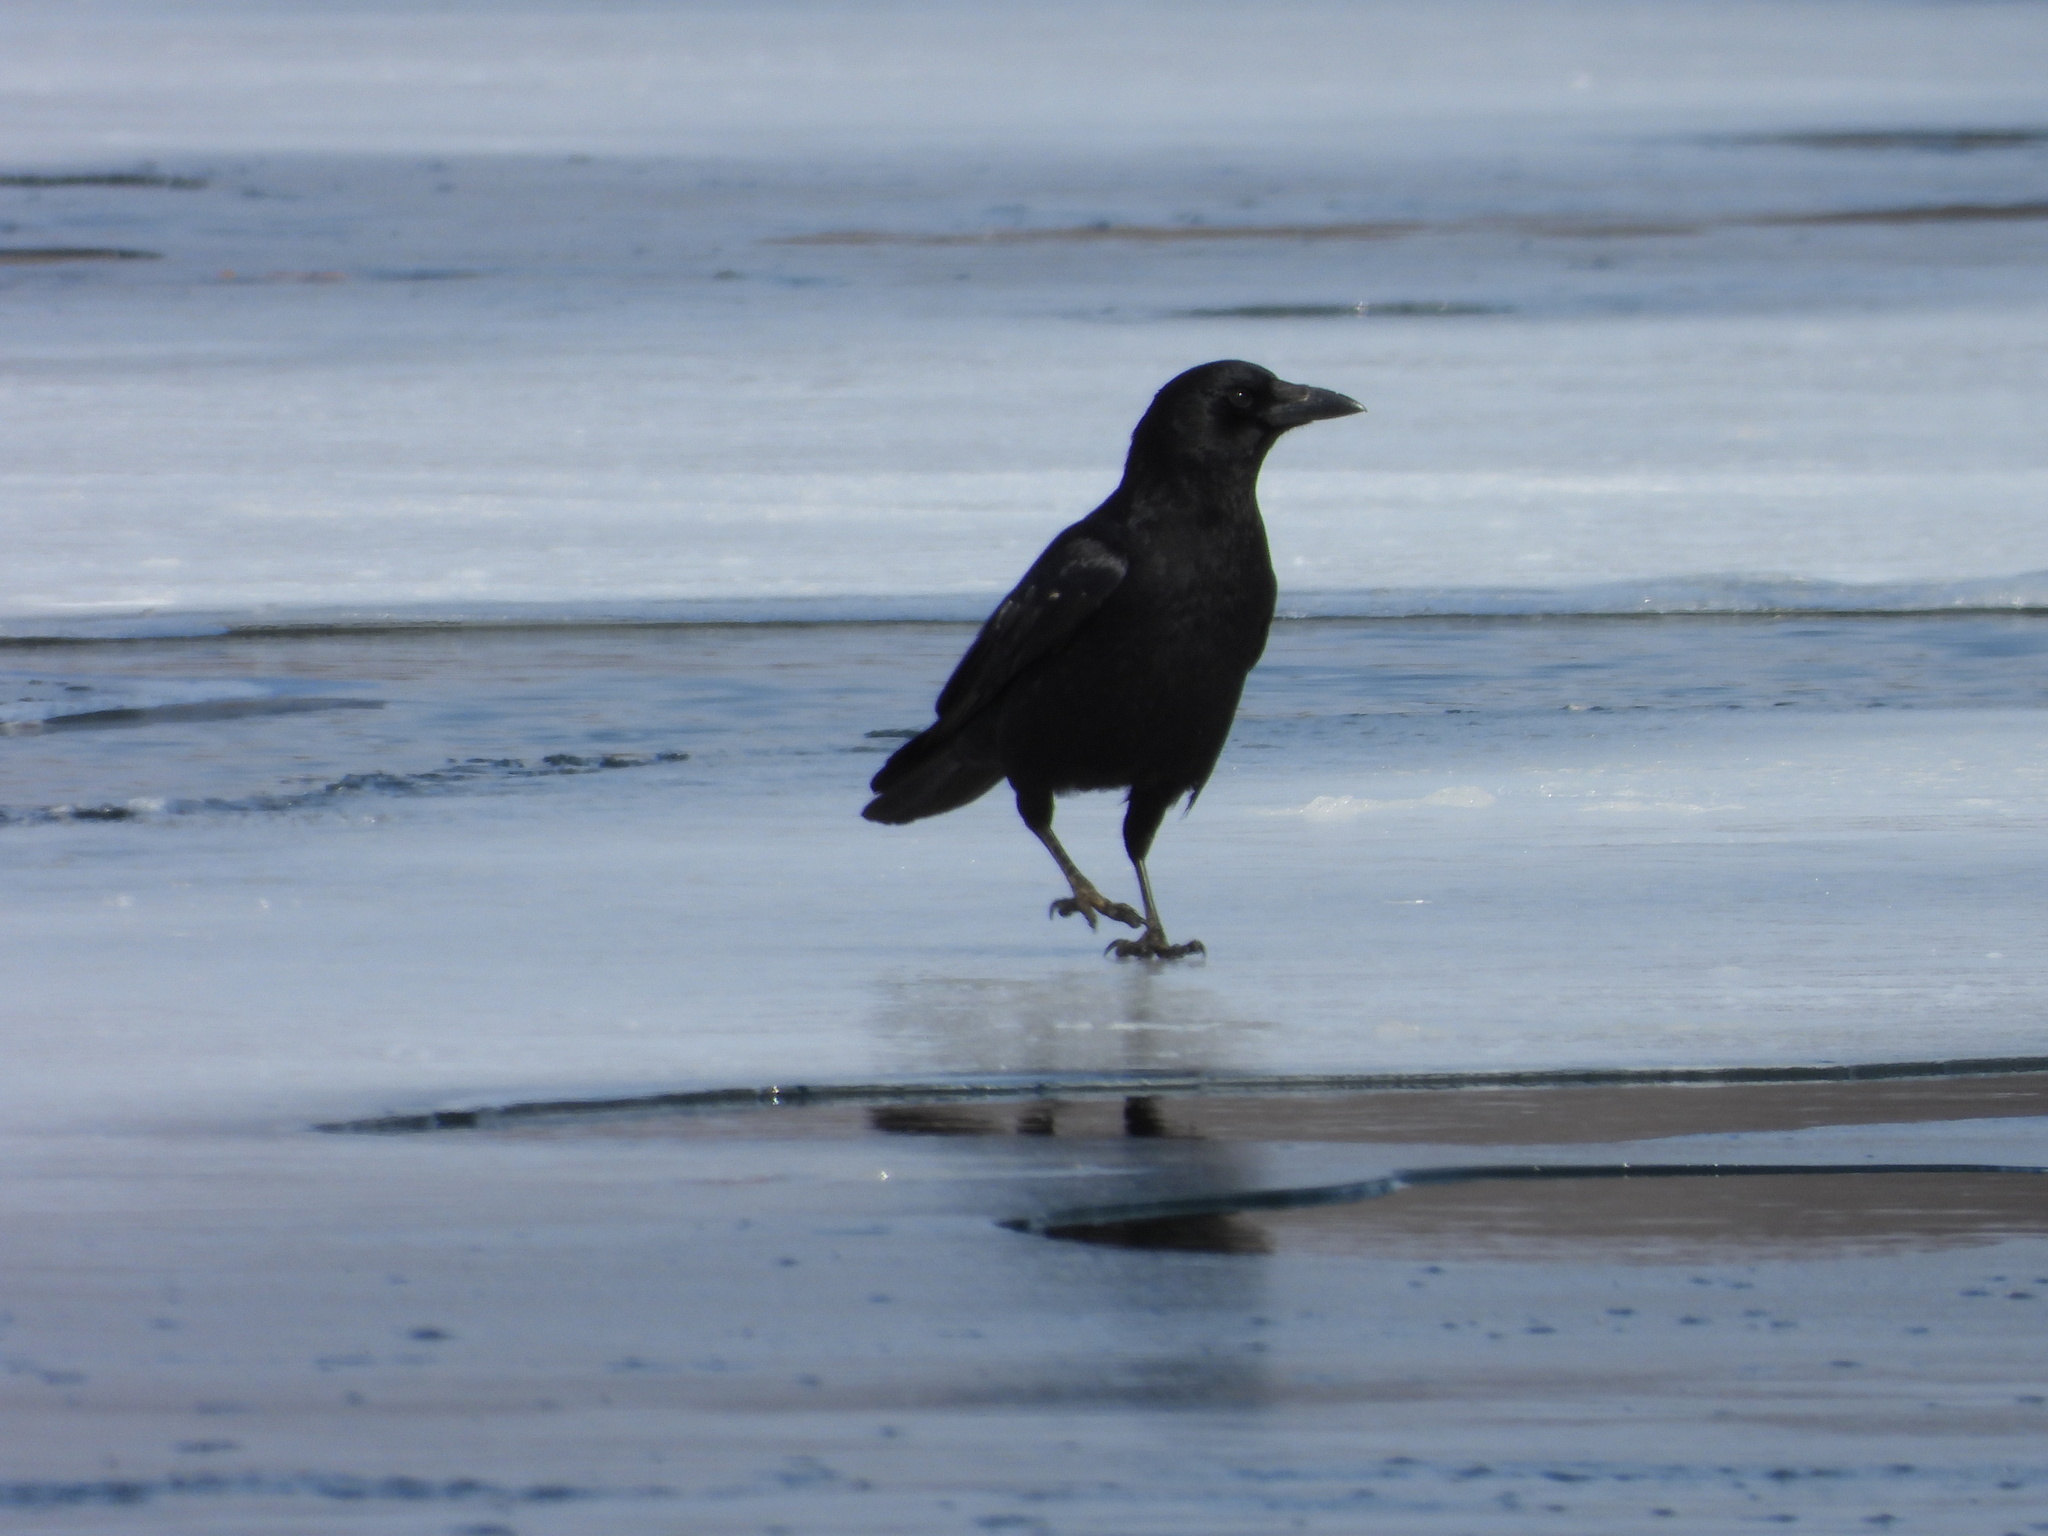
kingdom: Animalia
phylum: Chordata
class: Aves
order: Passeriformes
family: Corvidae
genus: Corvus
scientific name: Corvus brachyrhynchos
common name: American crow
